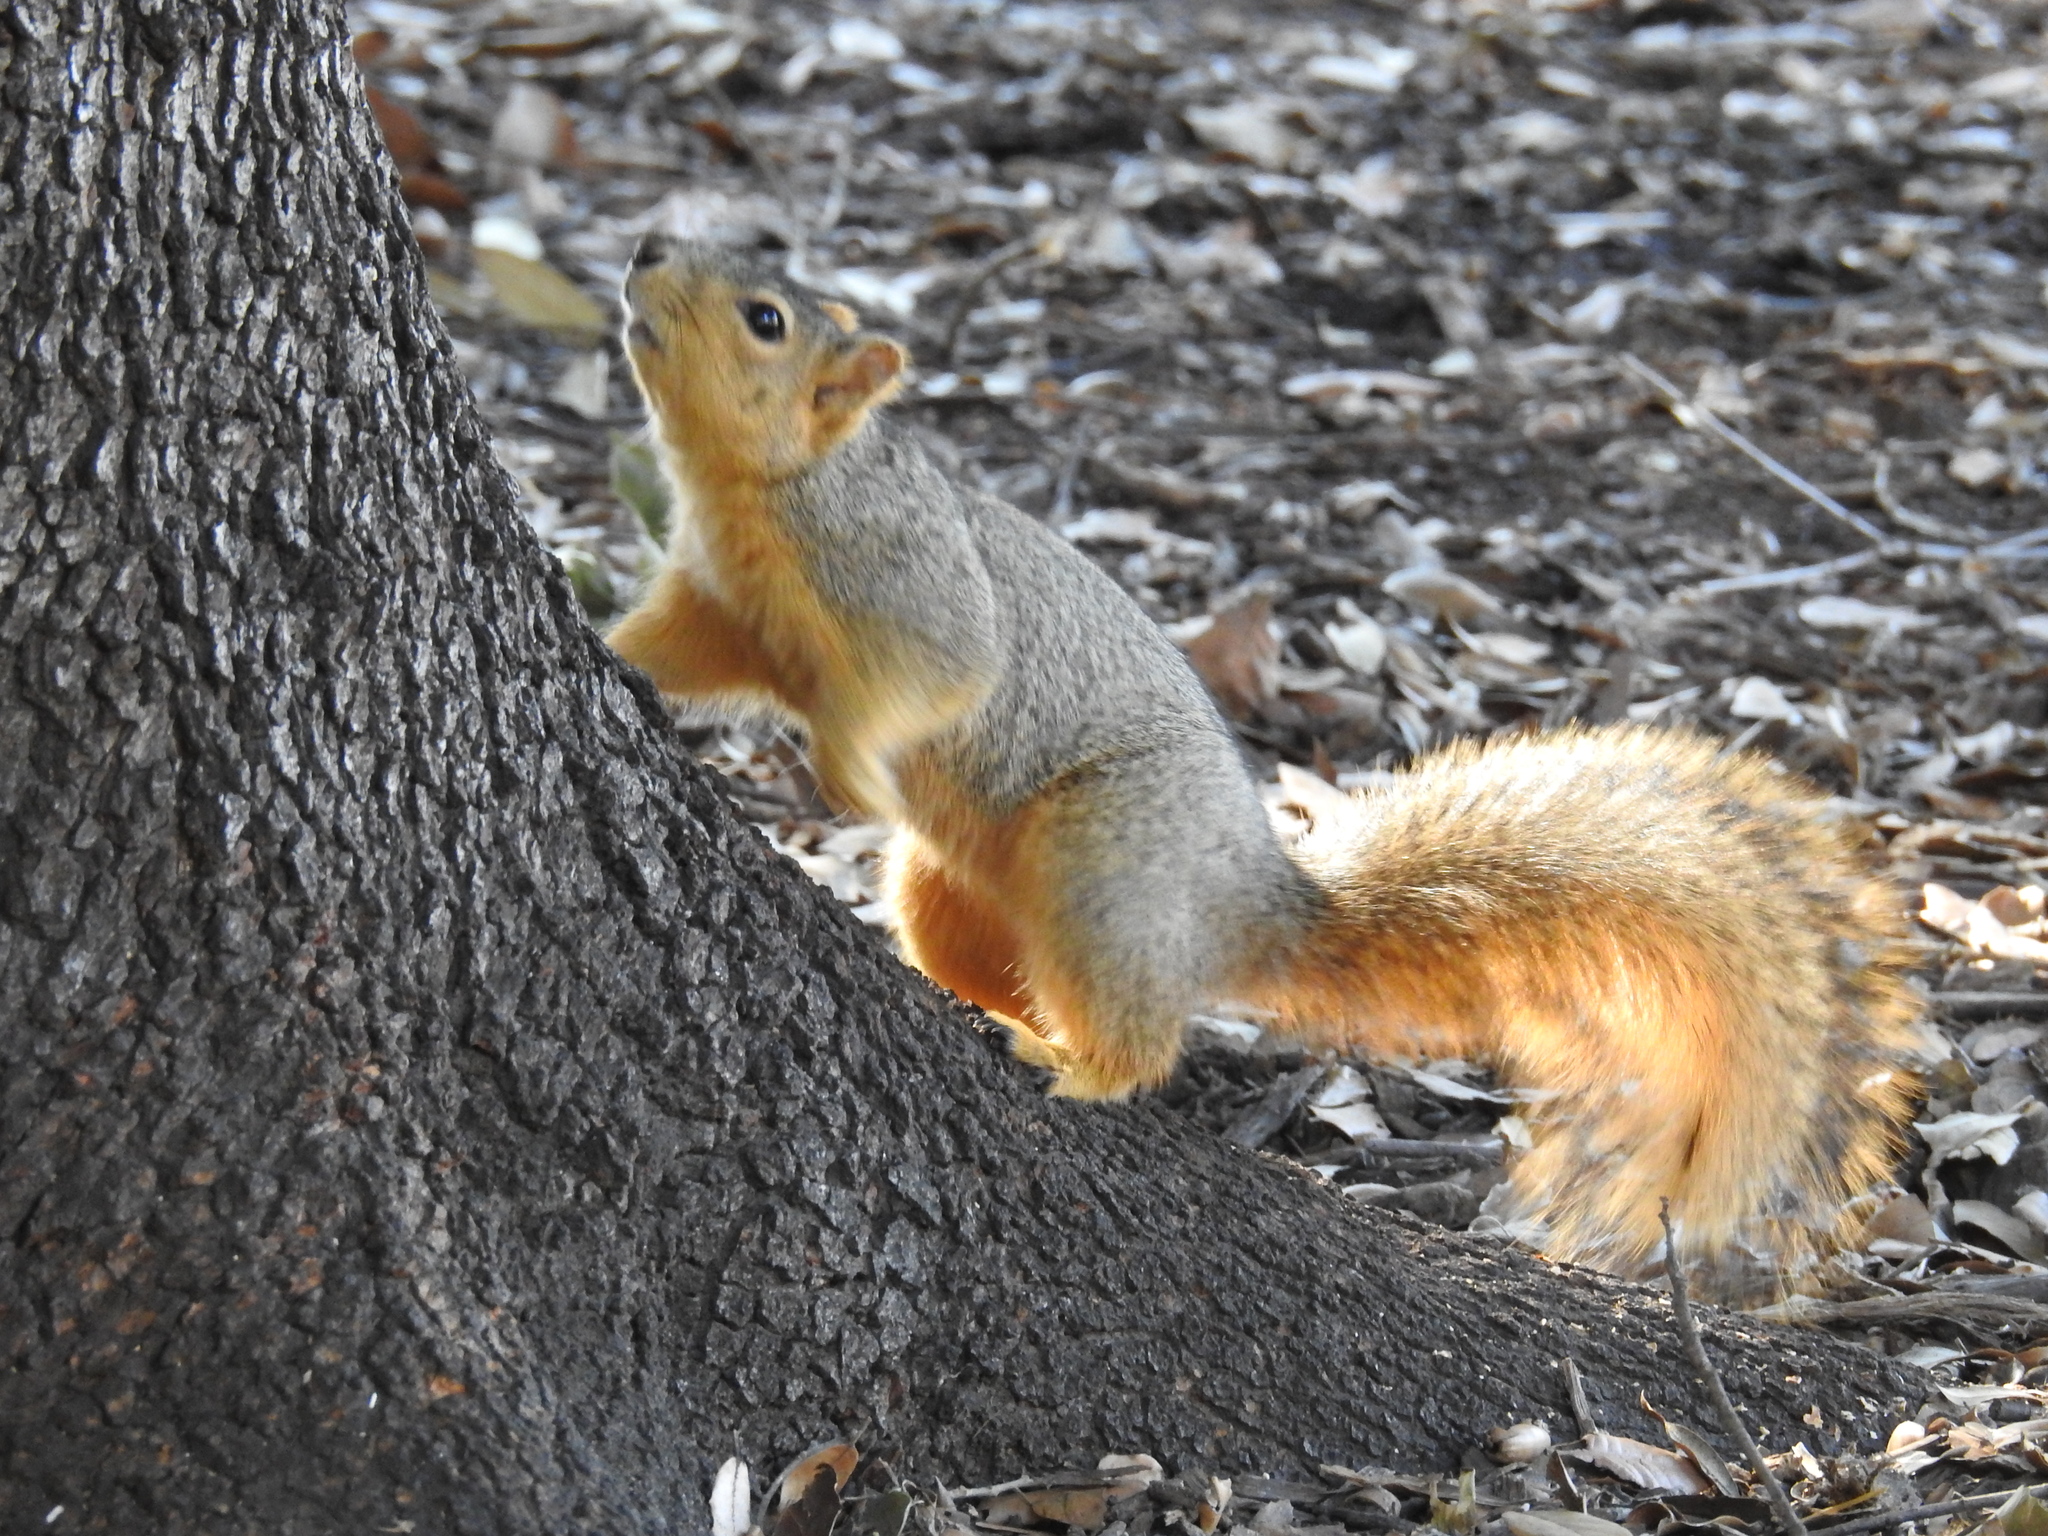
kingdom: Animalia
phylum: Chordata
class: Mammalia
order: Rodentia
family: Sciuridae
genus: Sciurus
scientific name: Sciurus niger
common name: Fox squirrel
